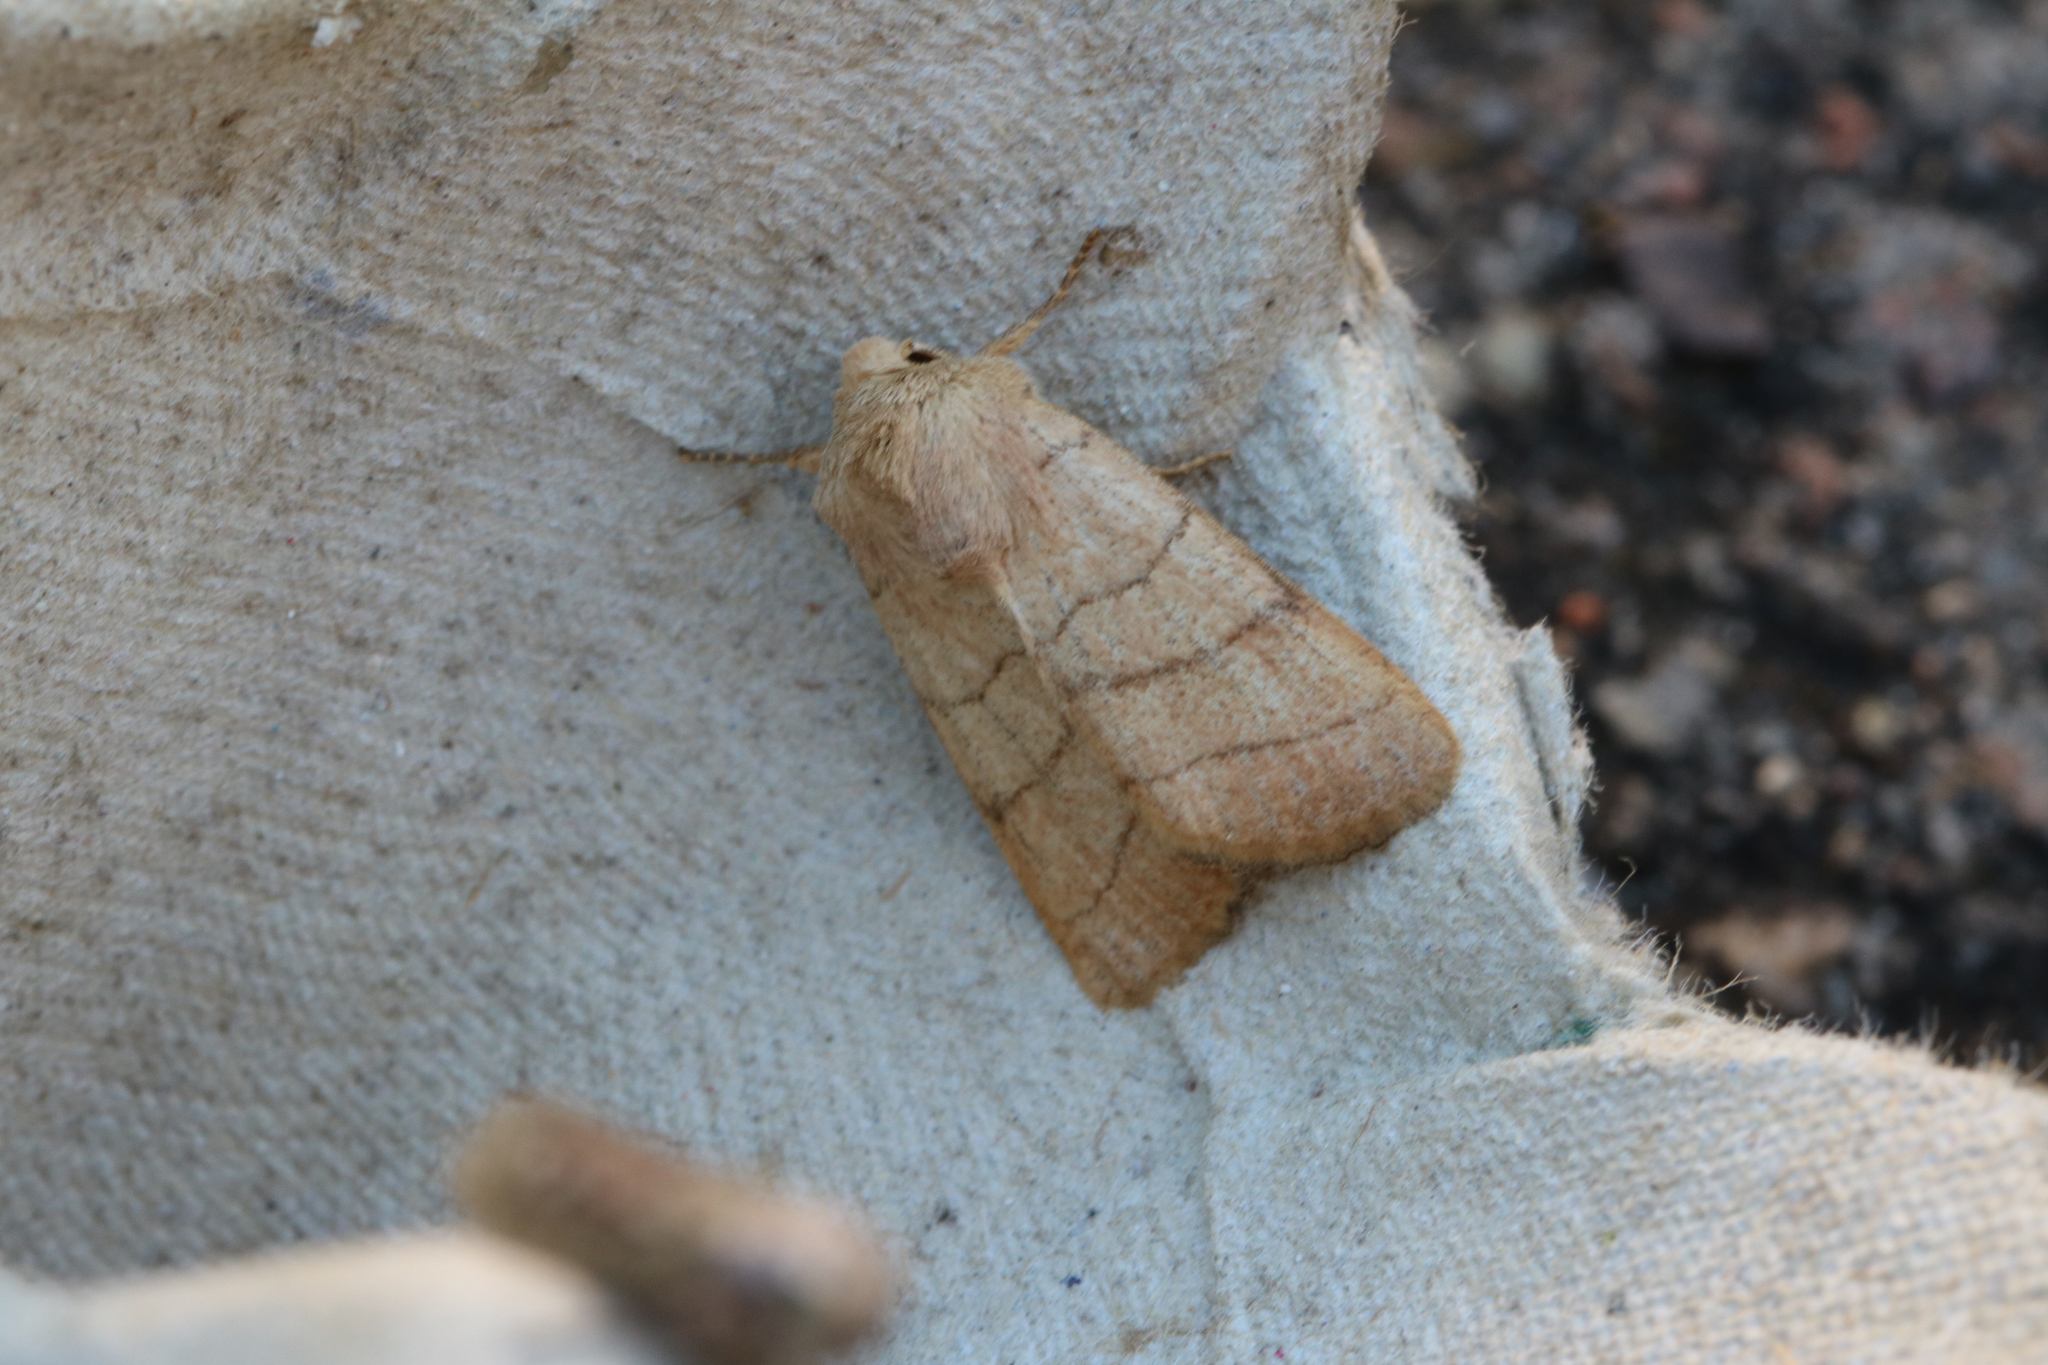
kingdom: Animalia
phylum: Arthropoda
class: Insecta
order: Lepidoptera
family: Noctuidae
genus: Charanyca
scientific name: Charanyca trigrammica
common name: Treble lines
